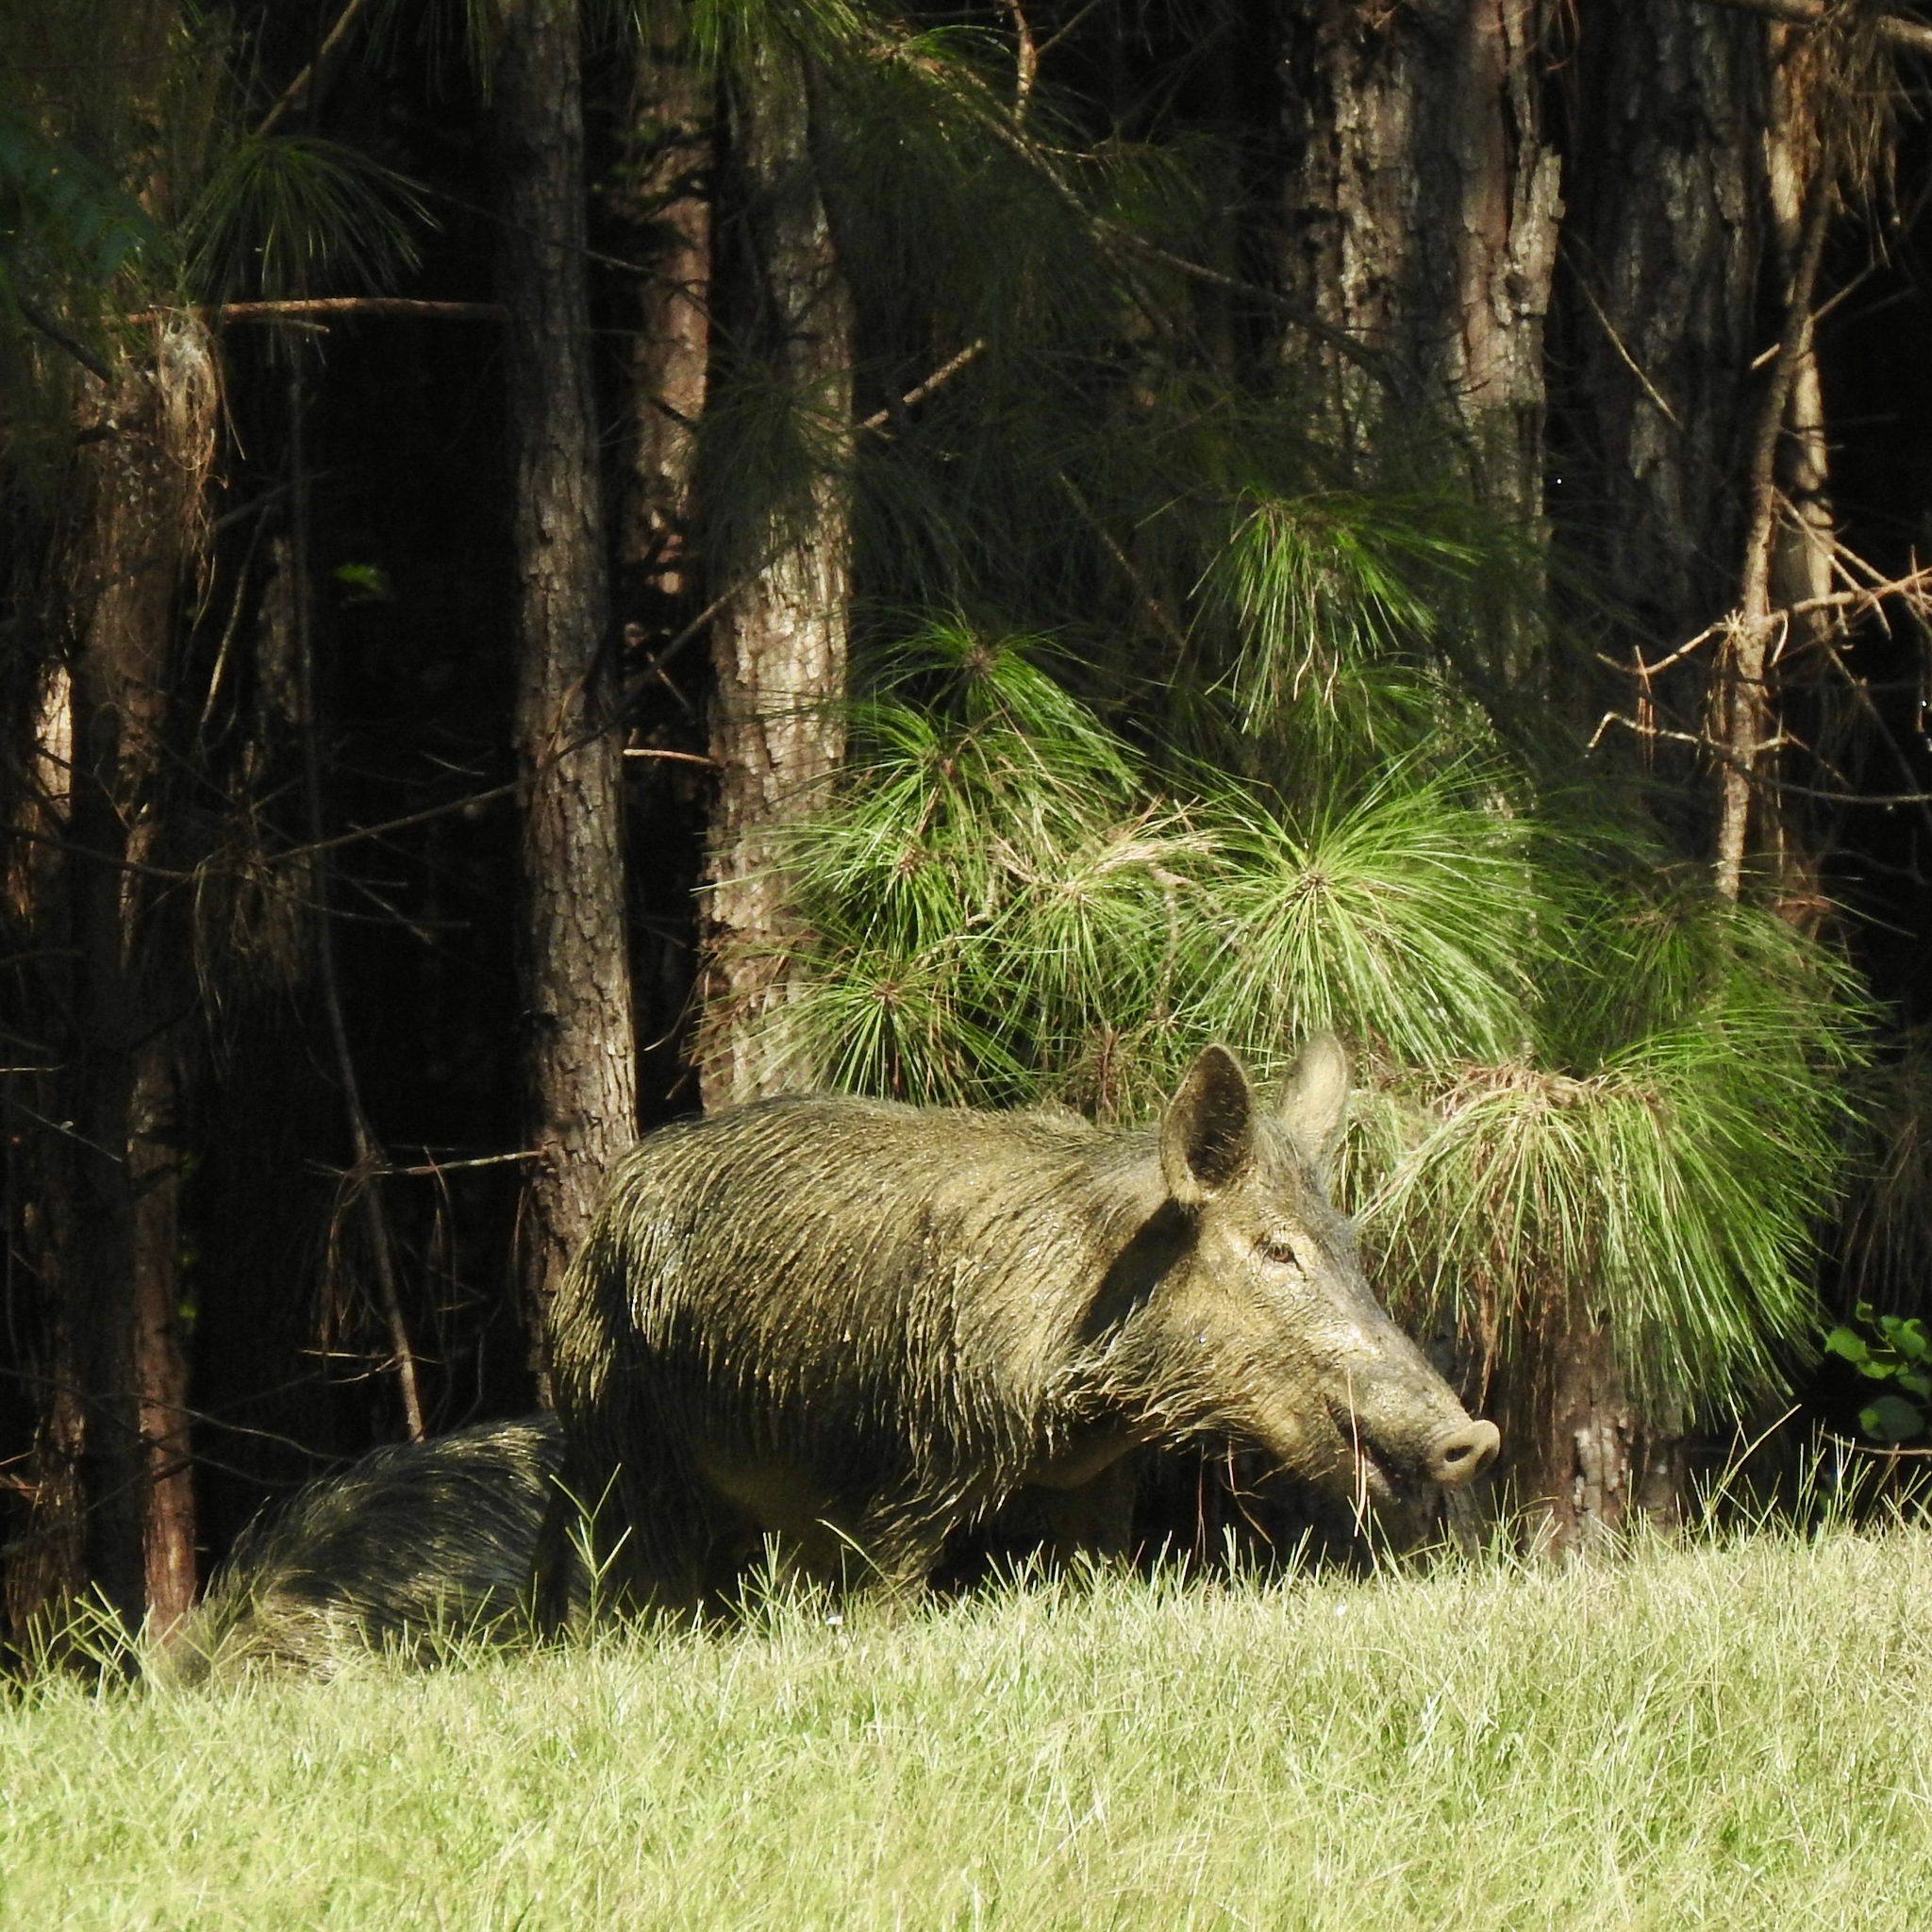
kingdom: Animalia
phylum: Chordata
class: Mammalia
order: Artiodactyla
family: Suidae
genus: Sus
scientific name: Sus scrofa
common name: Wild boar
